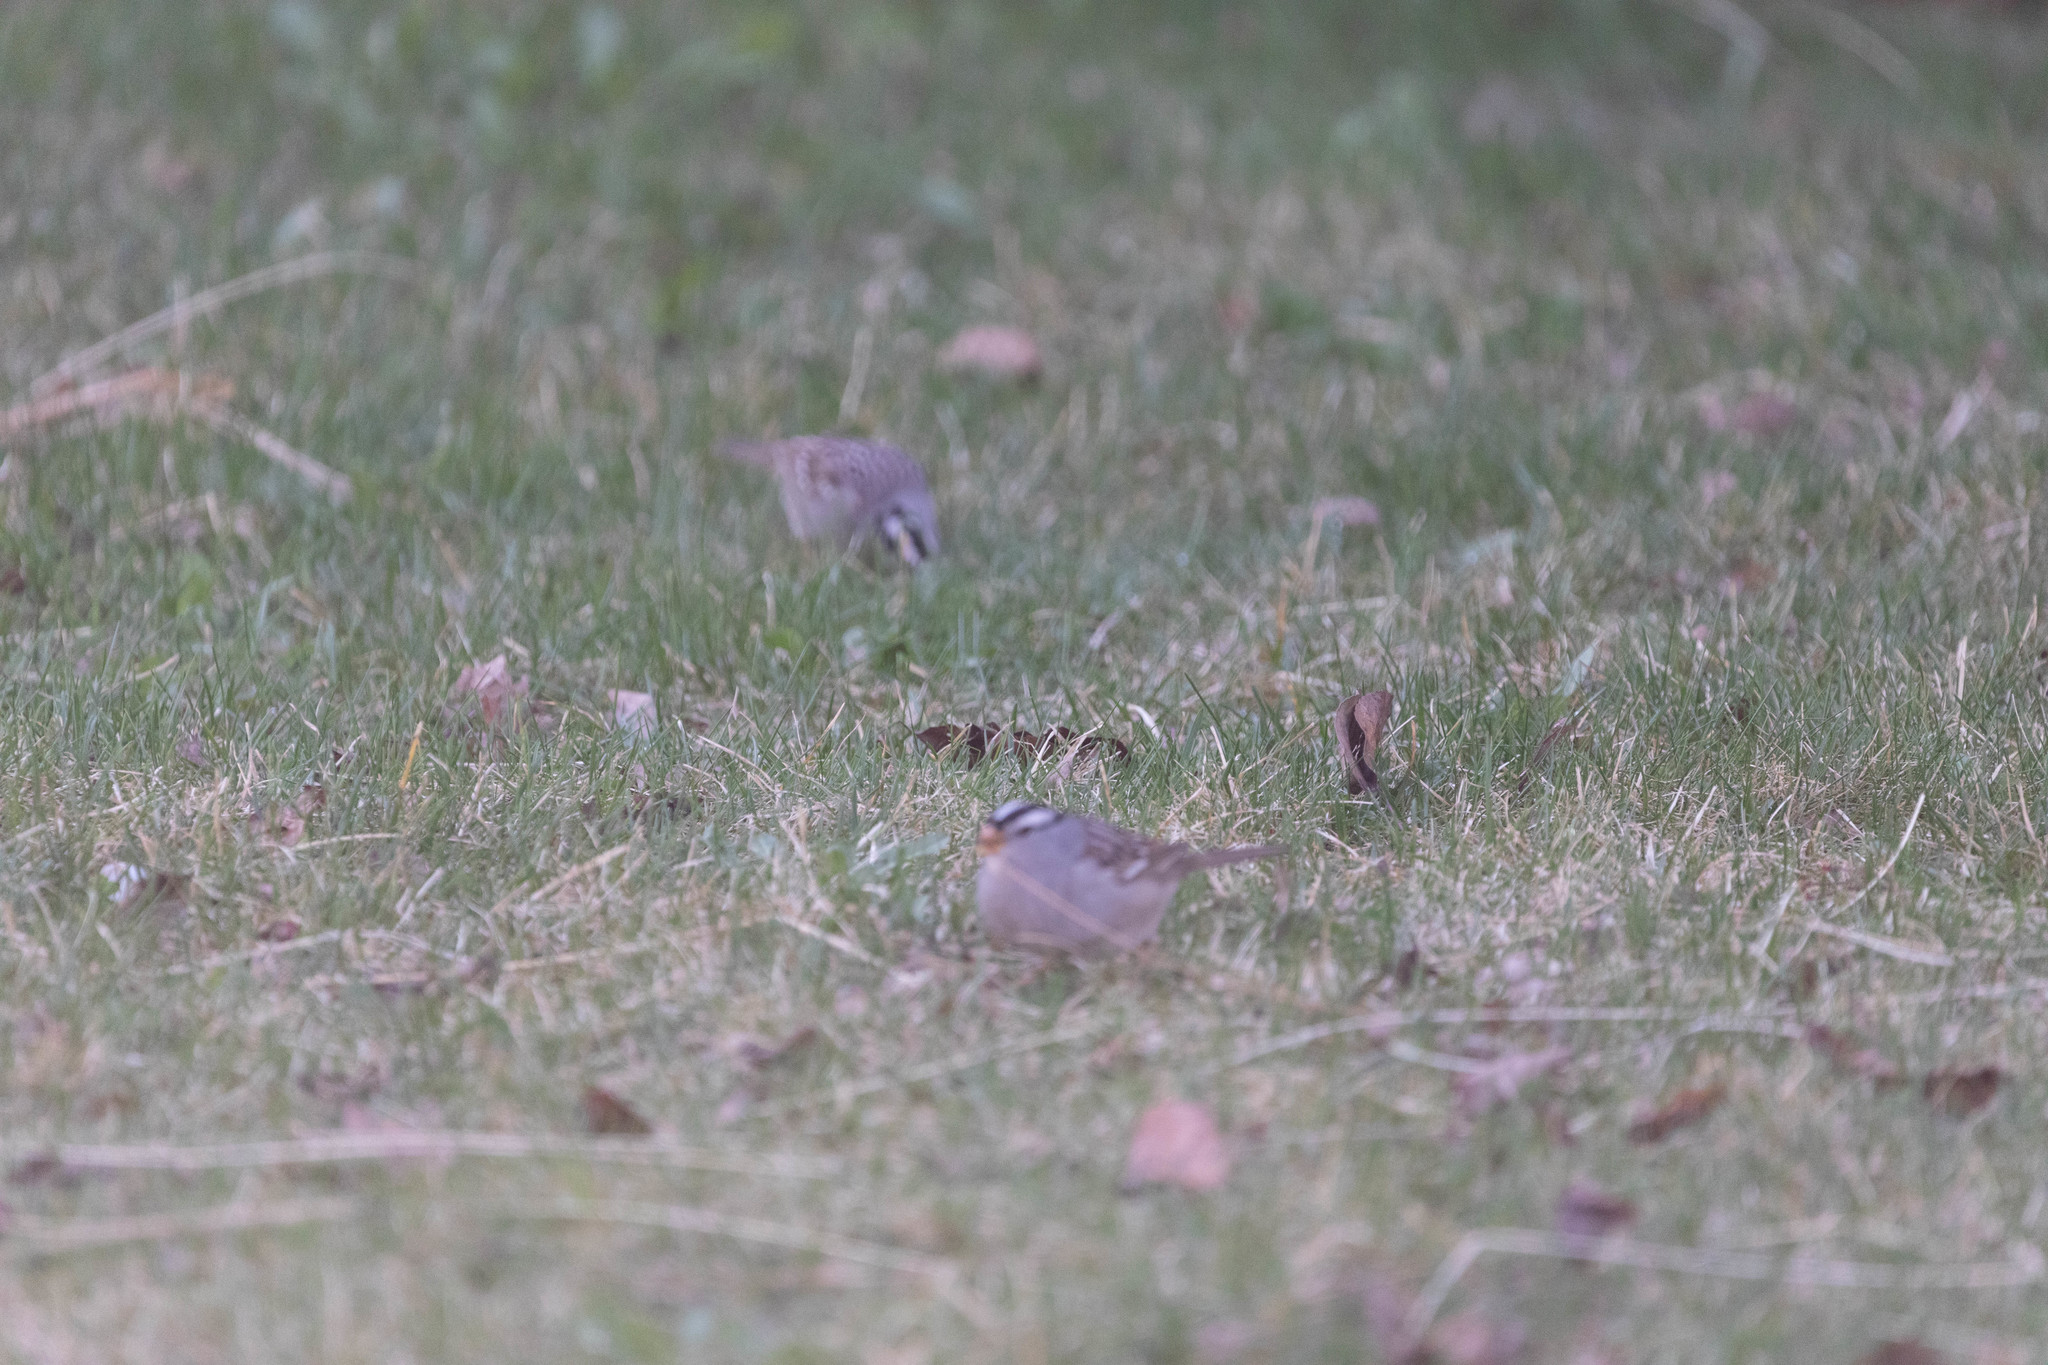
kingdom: Animalia
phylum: Chordata
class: Aves
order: Passeriformes
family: Passerellidae
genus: Zonotrichia
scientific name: Zonotrichia leucophrys
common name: White-crowned sparrow
